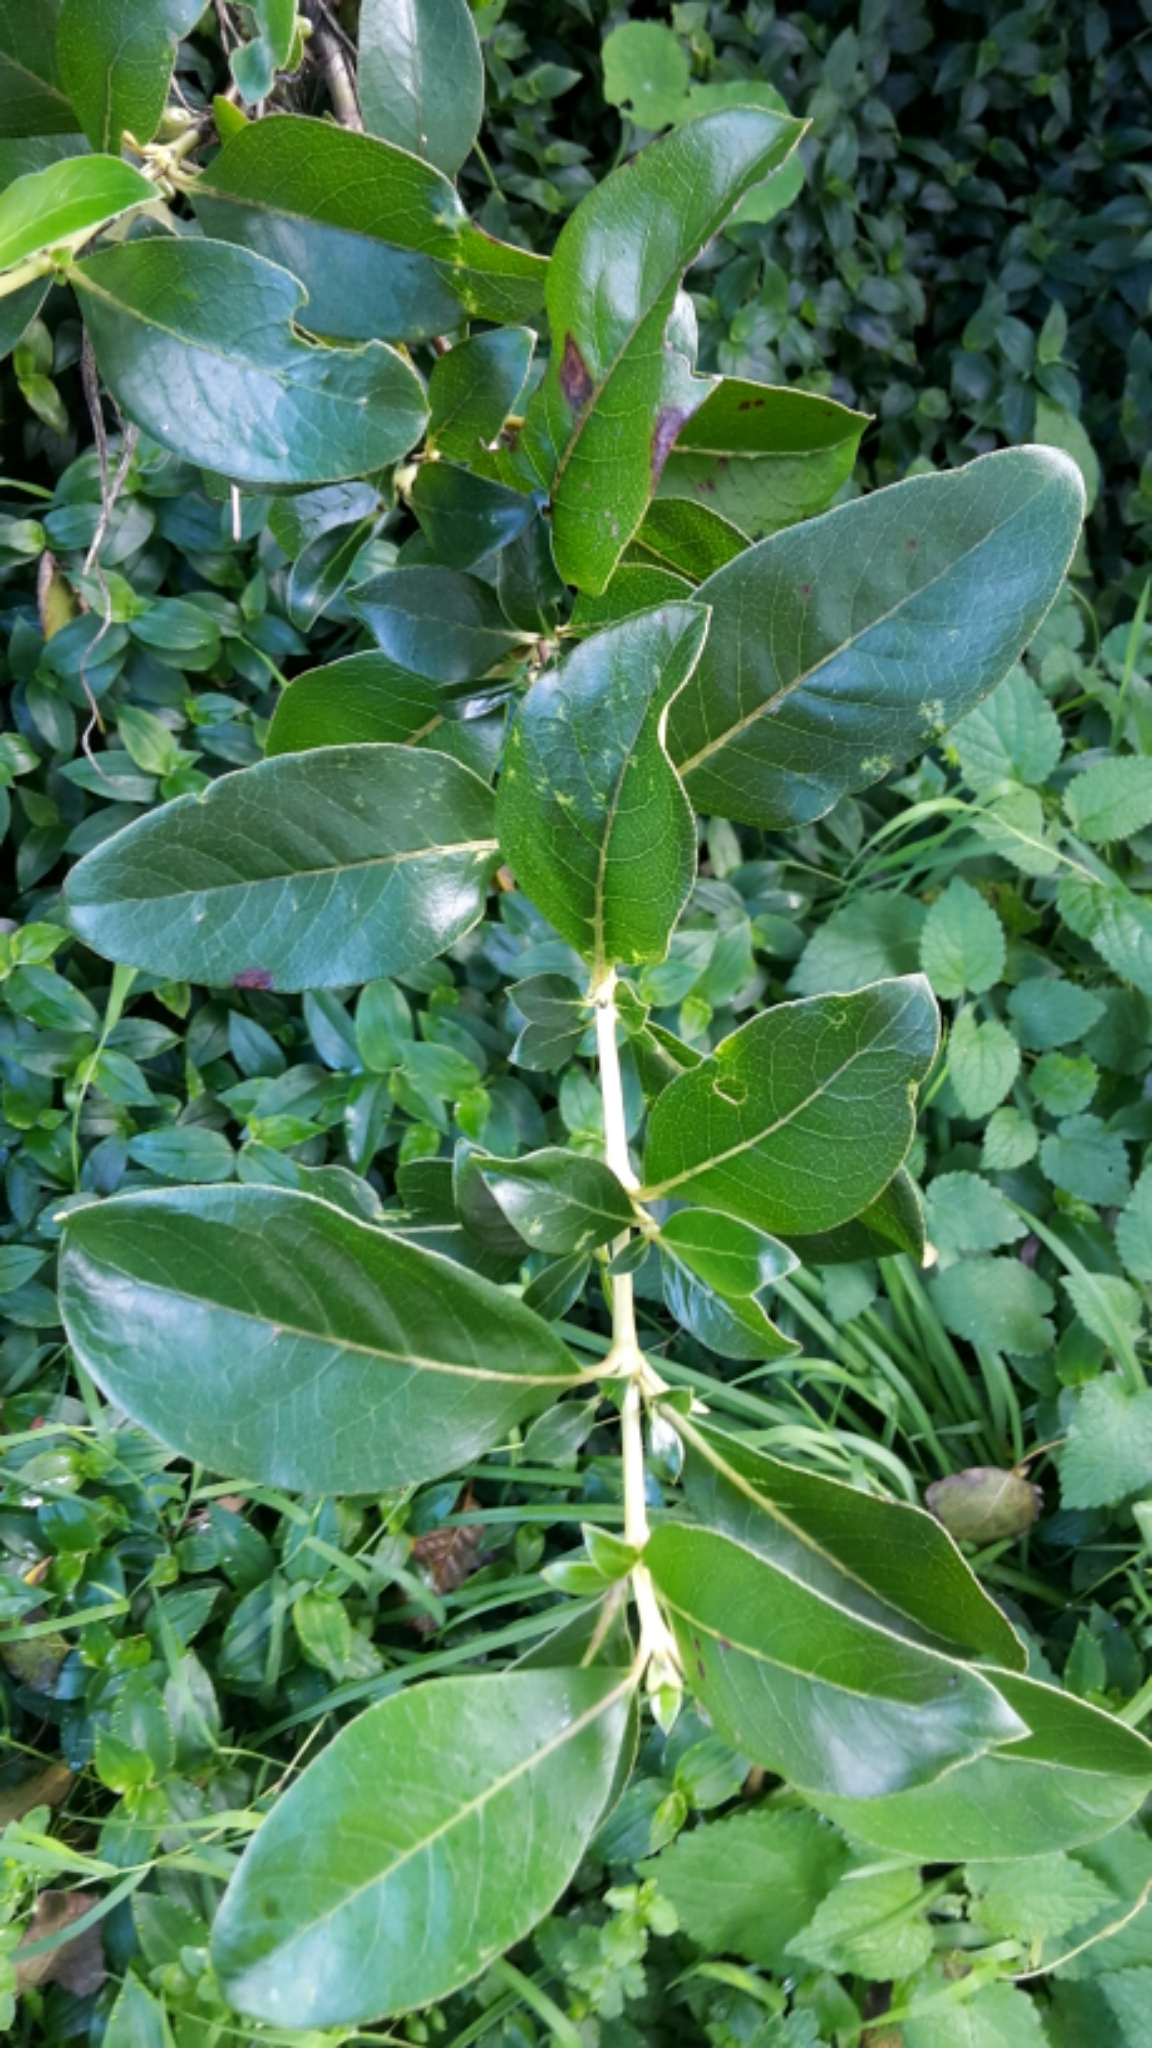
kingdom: Plantae
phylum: Tracheophyta
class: Magnoliopsida
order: Gentianales
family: Rubiaceae
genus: Coprosma
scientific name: Coprosma robusta
